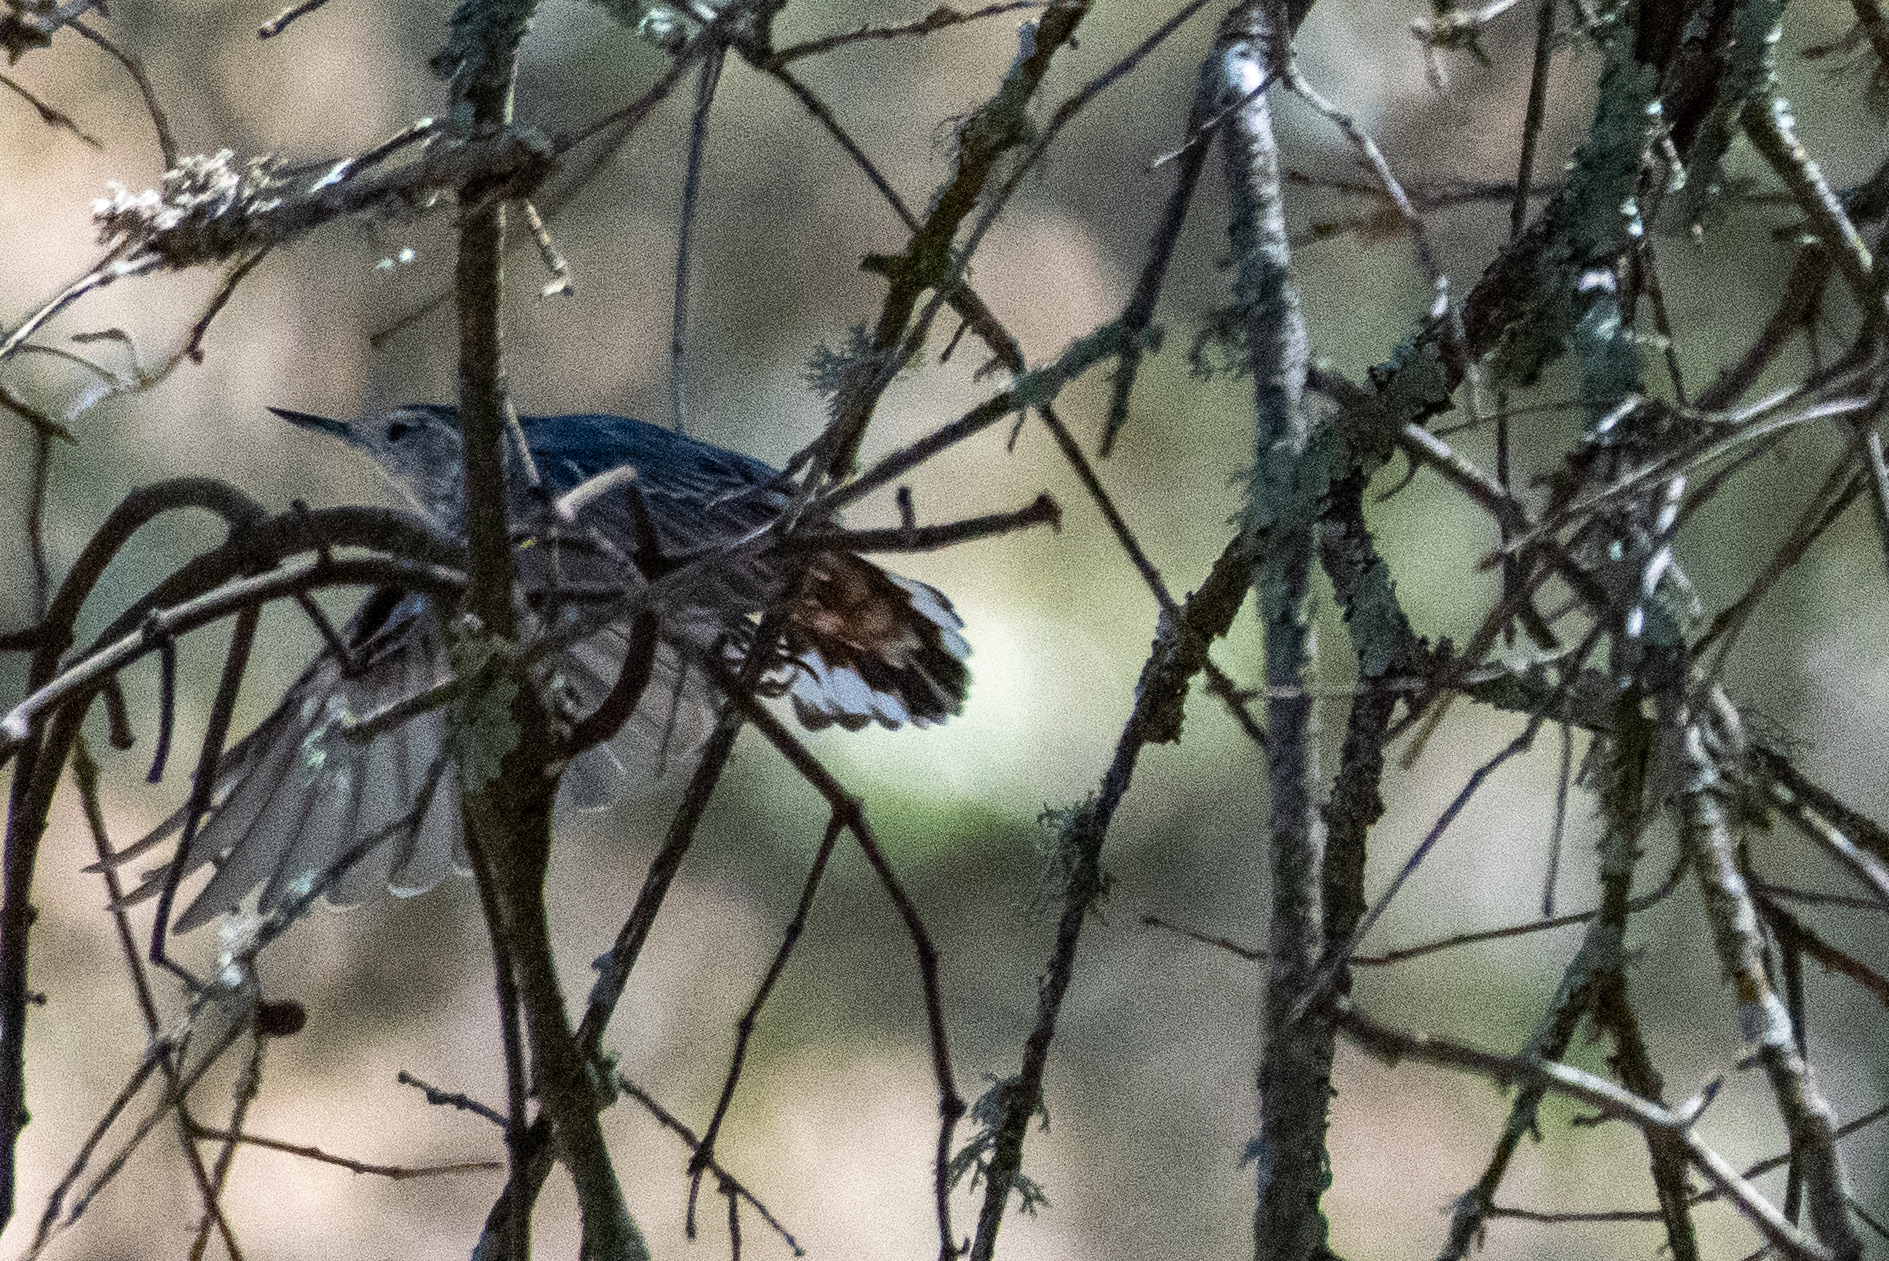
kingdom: Animalia
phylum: Chordata
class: Aves
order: Passeriformes
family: Sittidae
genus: Sitta
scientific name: Sitta carolinensis
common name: White-breasted nuthatch
